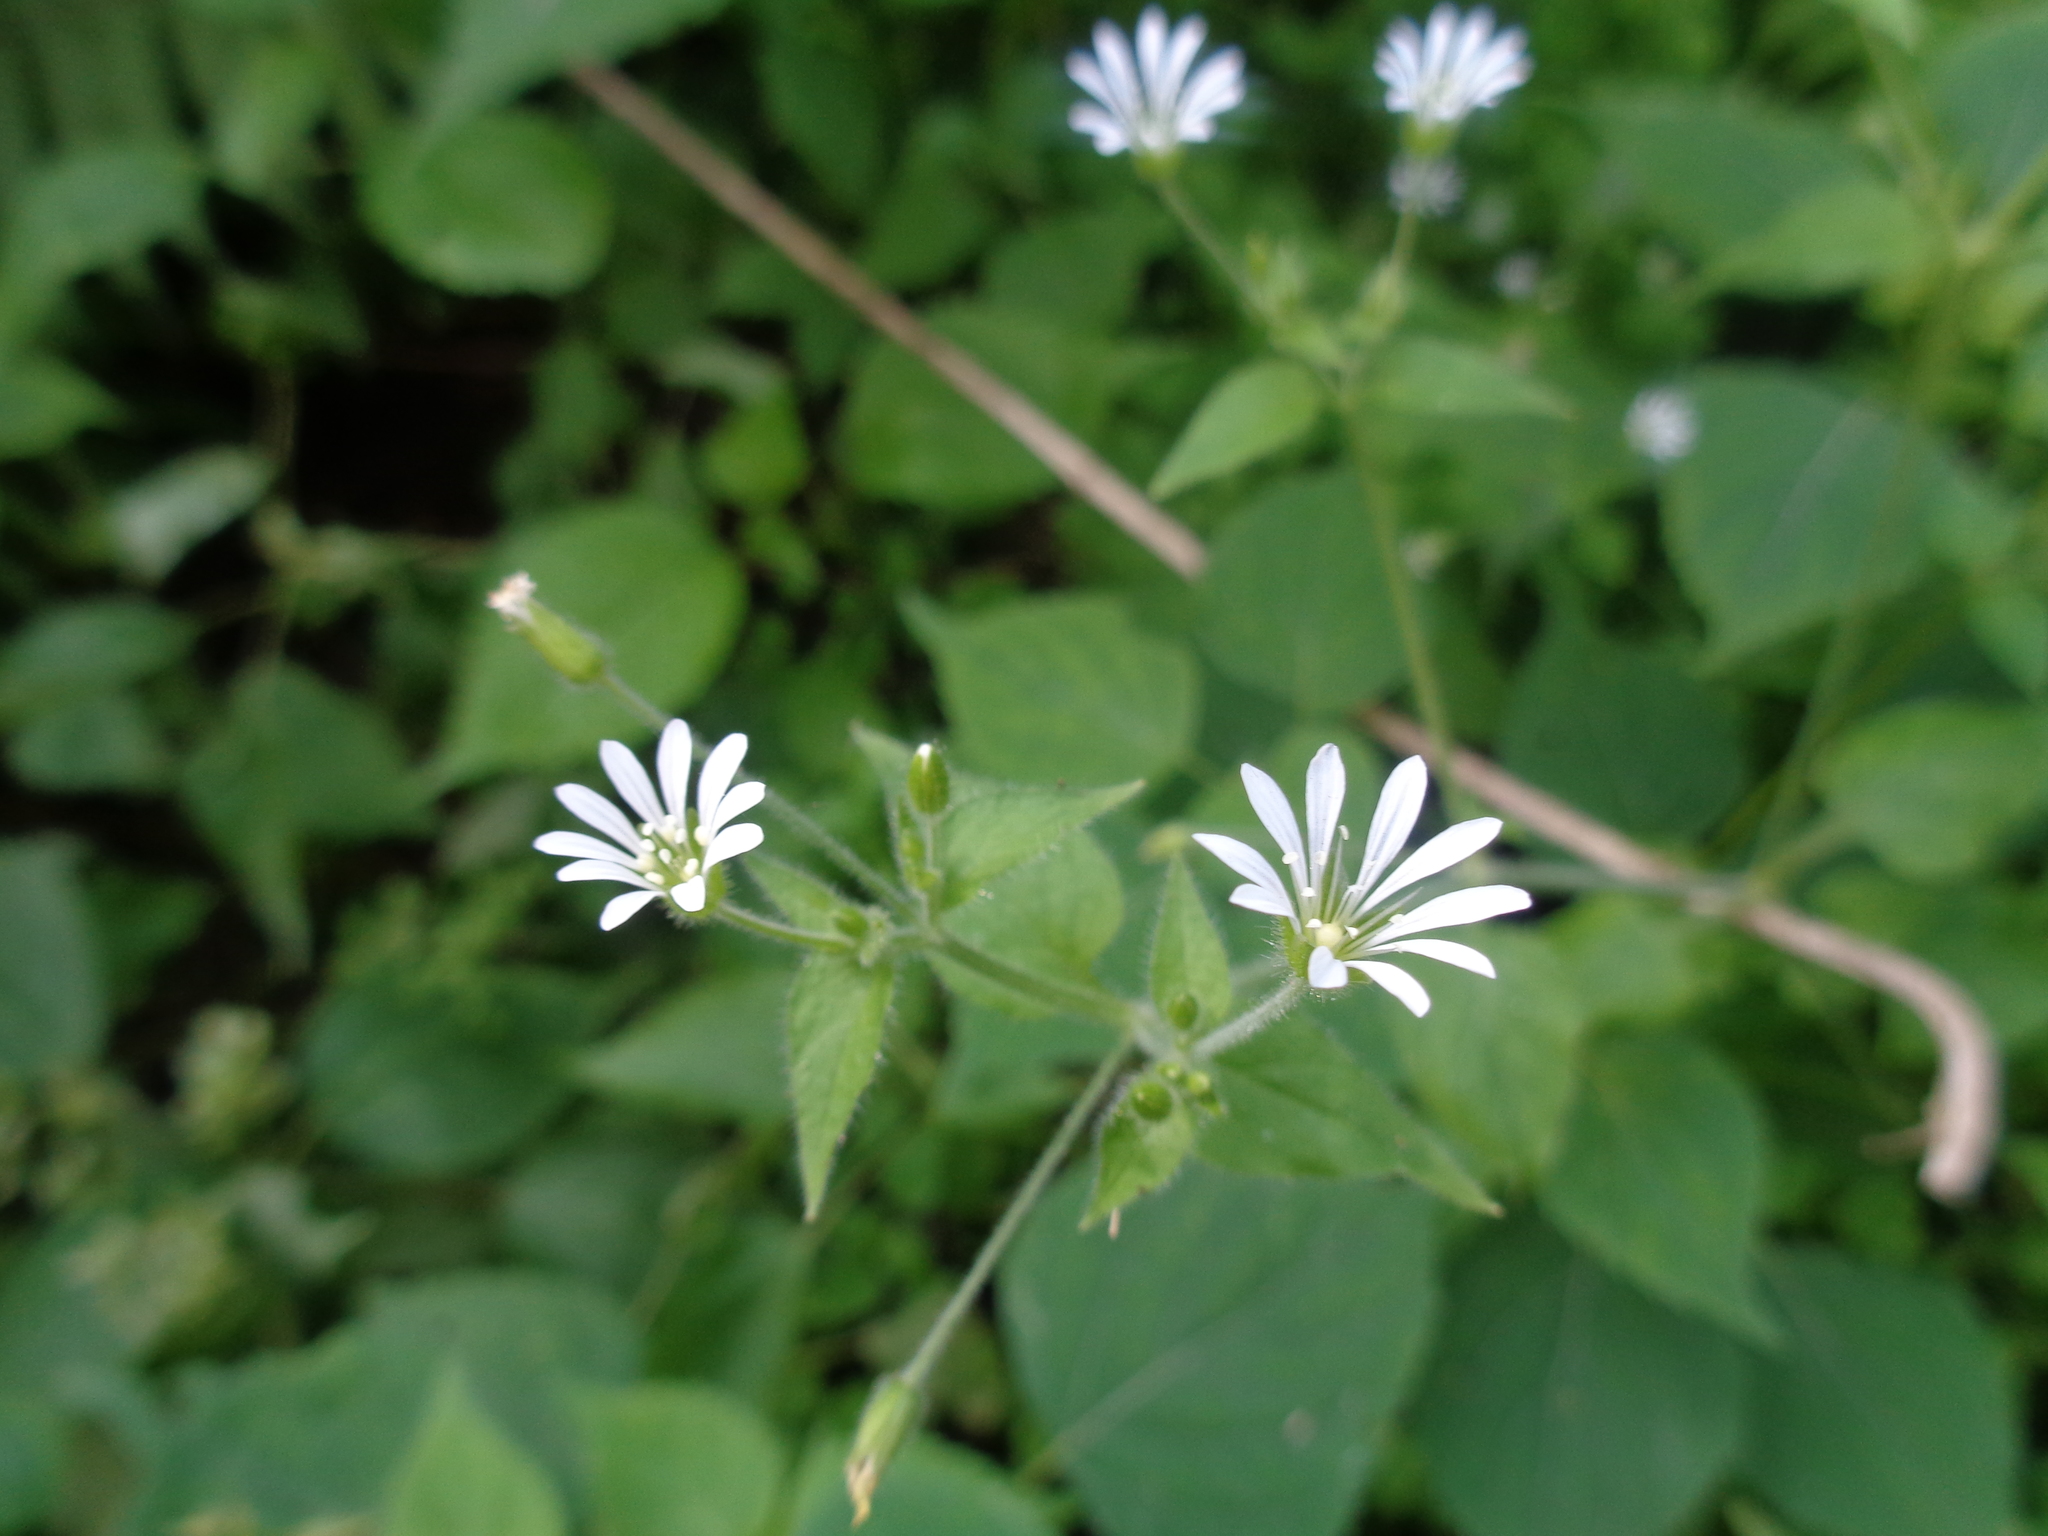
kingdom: Plantae
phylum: Tracheophyta
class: Magnoliopsida
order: Caryophyllales
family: Caryophyllaceae
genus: Stellaria
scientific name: Stellaria cuspidata
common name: Mexican chickweed
